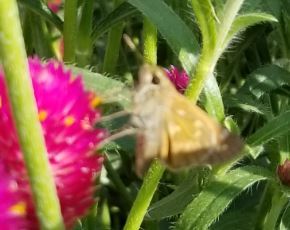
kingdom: Animalia
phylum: Arthropoda
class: Insecta
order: Lepidoptera
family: Hesperiidae
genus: Atalopedes
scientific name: Atalopedes
